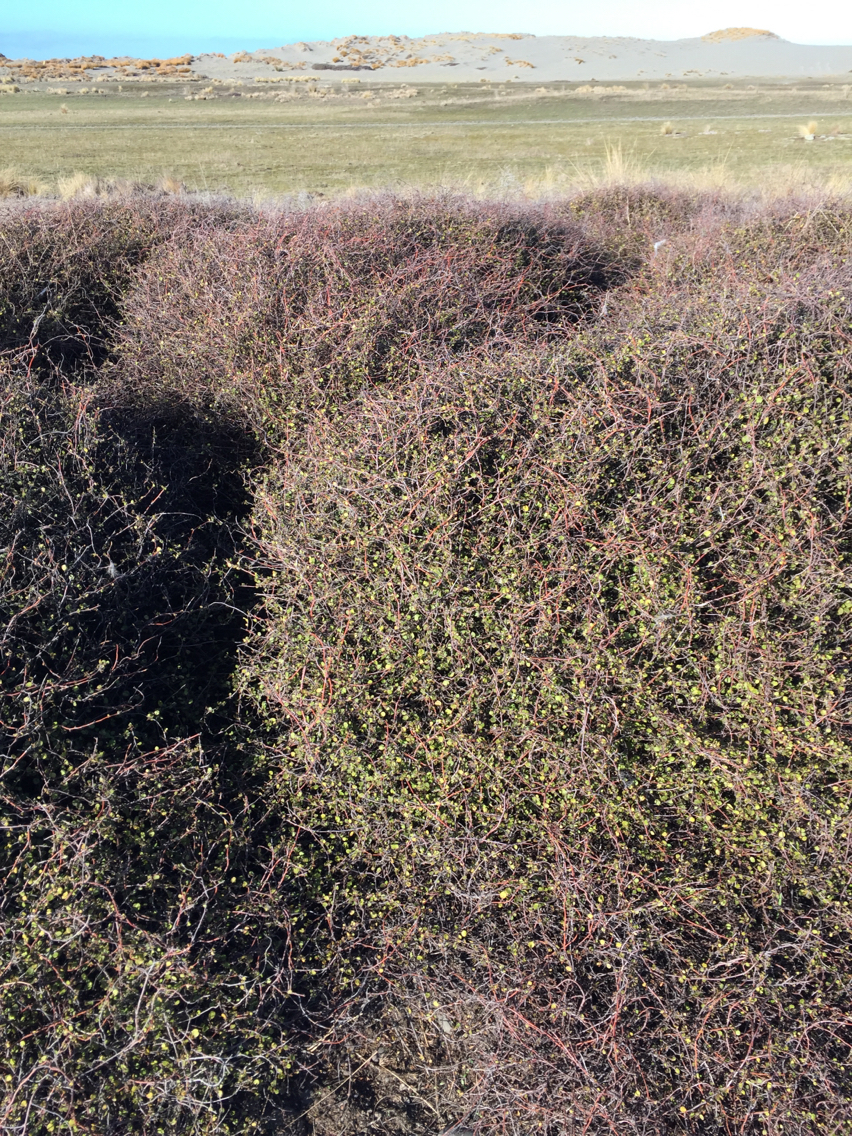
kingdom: Plantae
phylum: Tracheophyta
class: Magnoliopsida
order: Caryophyllales
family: Polygonaceae
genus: Muehlenbeckia
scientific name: Muehlenbeckia complexa
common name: Wireplant
